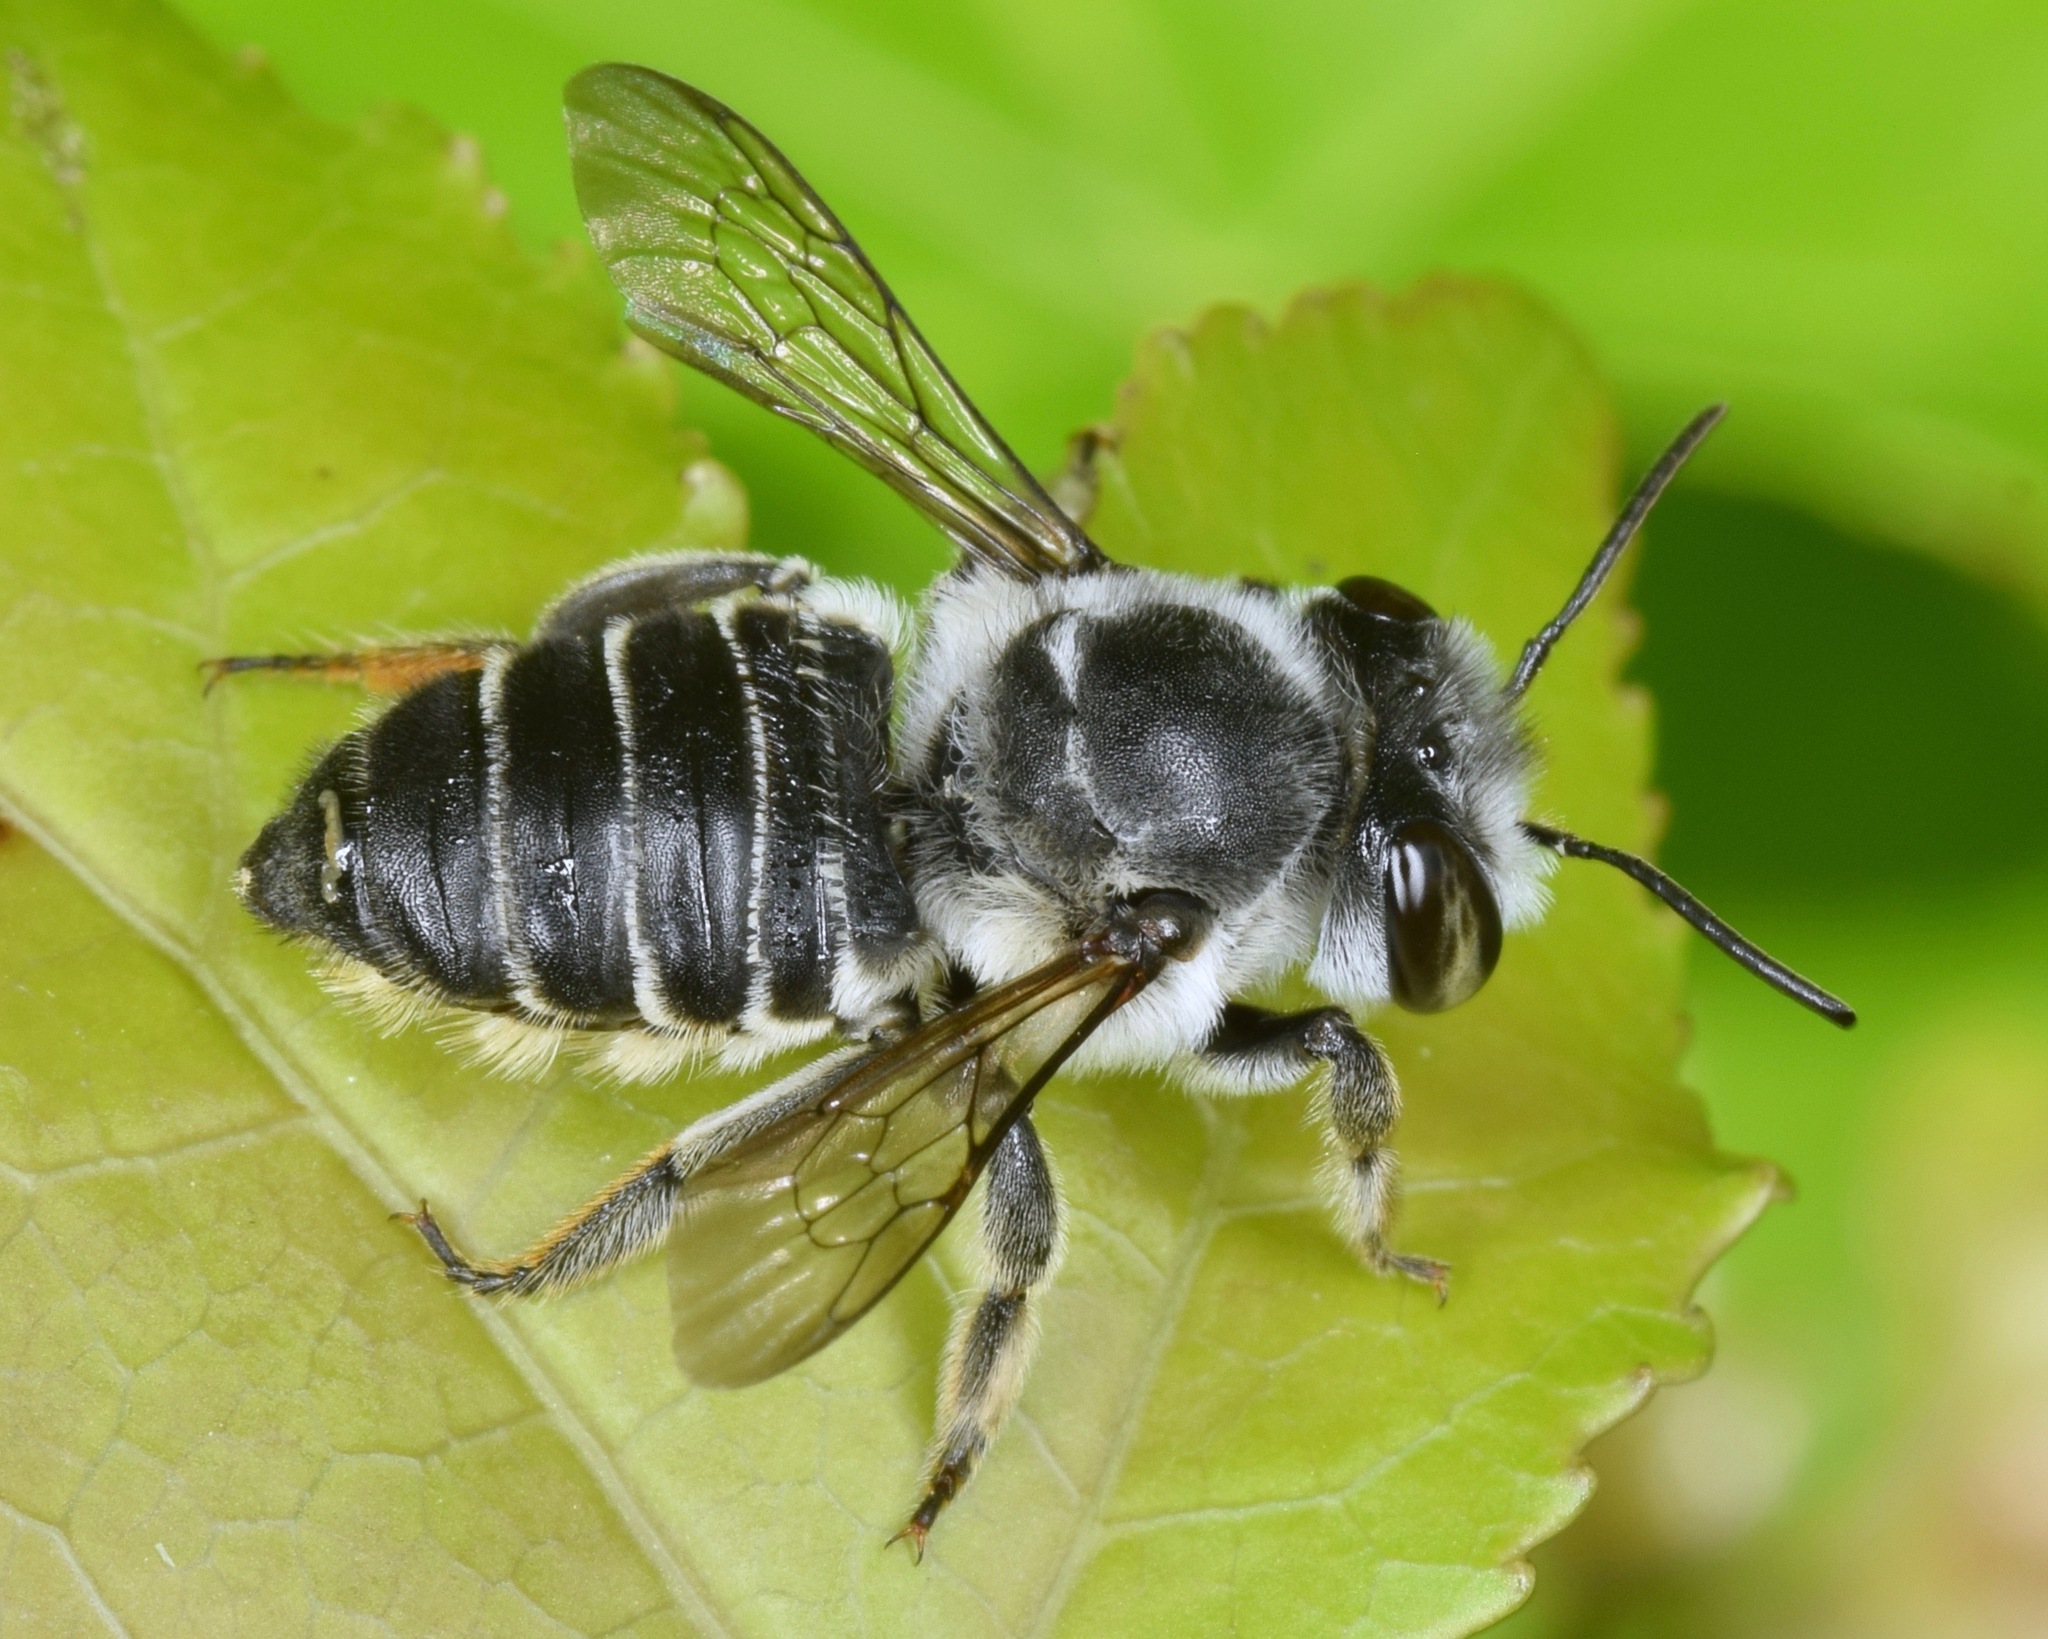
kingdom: Animalia
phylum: Arthropoda
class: Insecta
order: Hymenoptera
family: Megachilidae
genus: Megachile
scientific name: Megachile petulans
